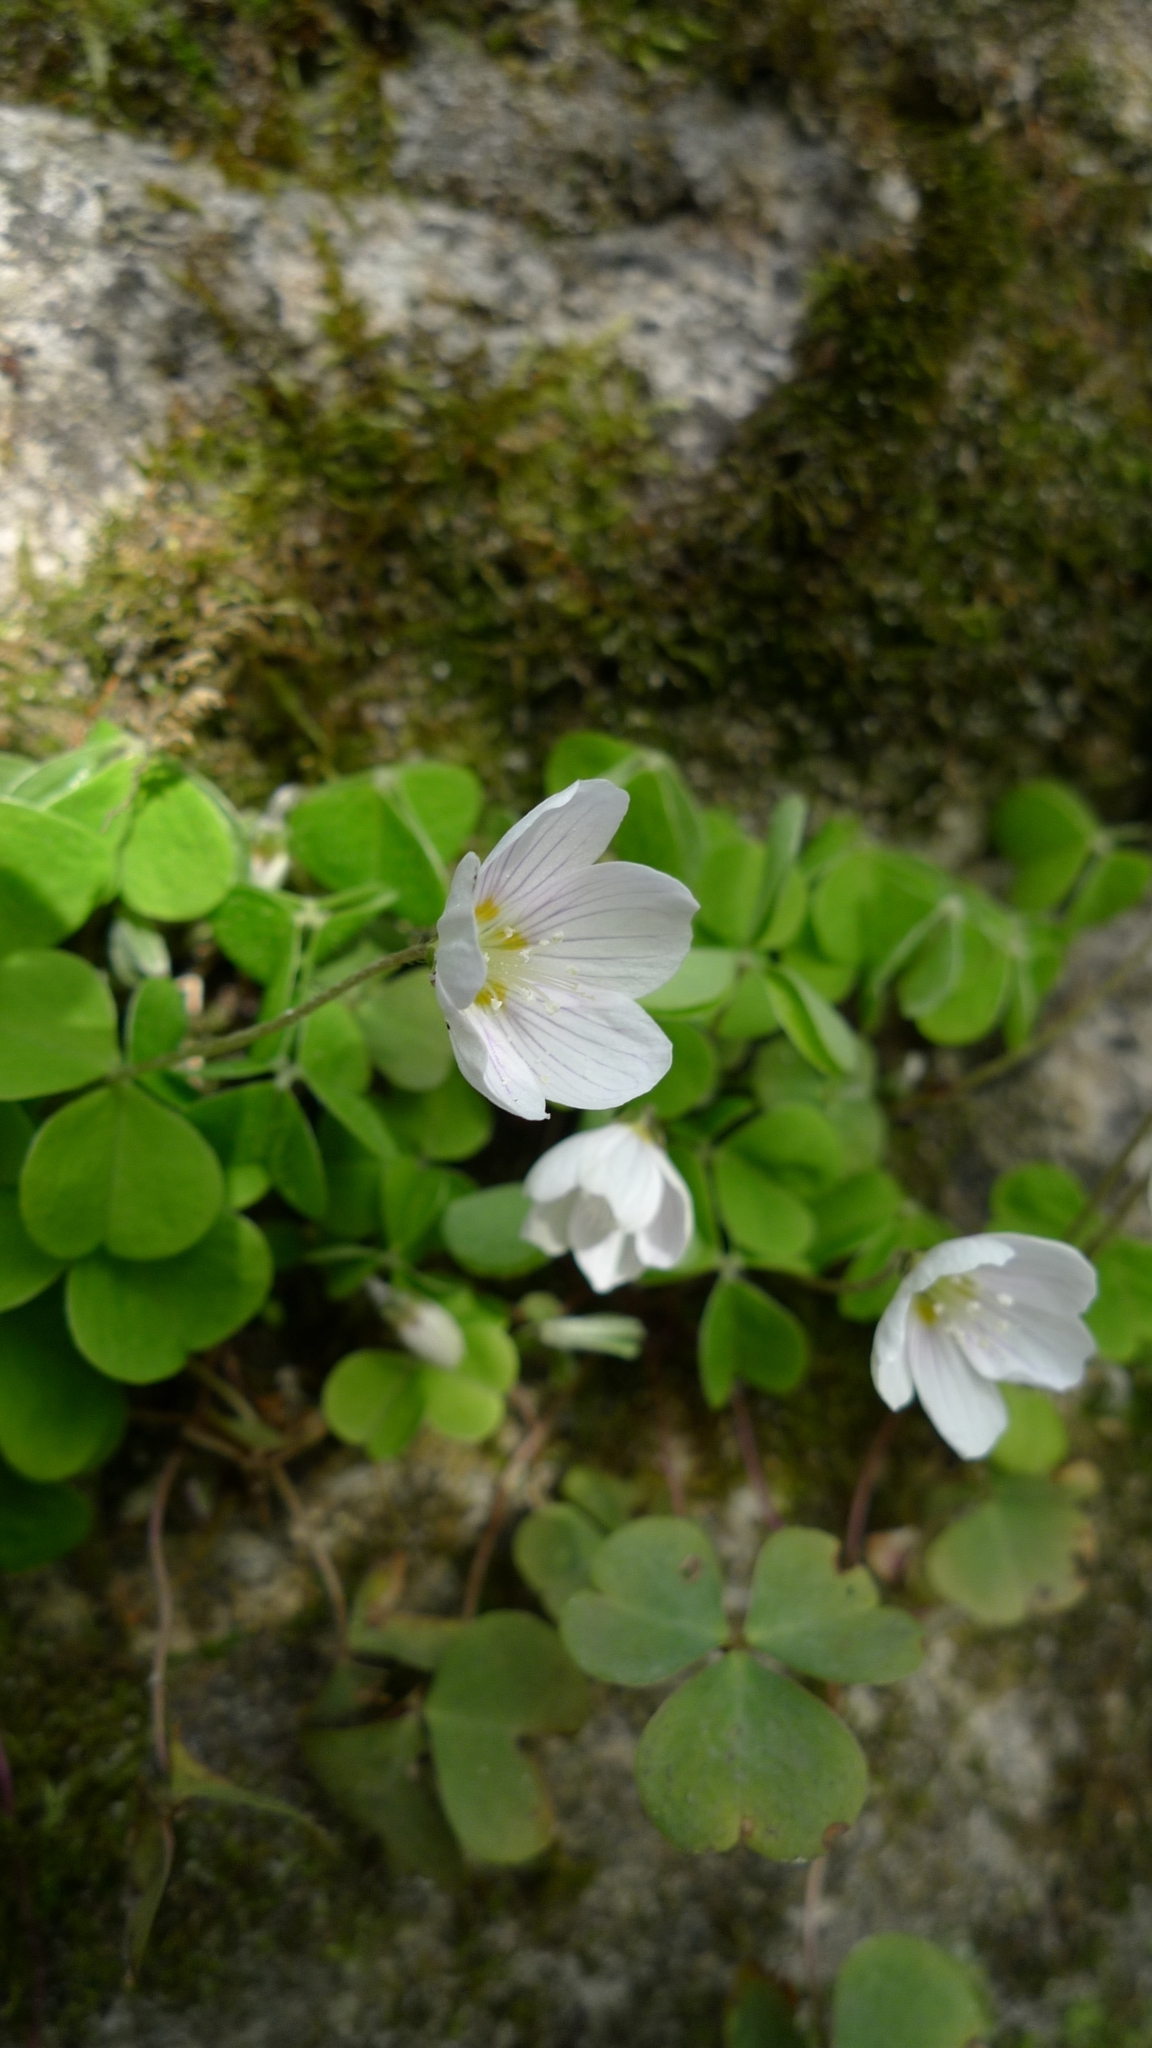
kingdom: Plantae
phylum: Tracheophyta
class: Magnoliopsida
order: Oxalidales
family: Oxalidaceae
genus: Oxalis
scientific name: Oxalis acetosella
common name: Wood-sorrel
